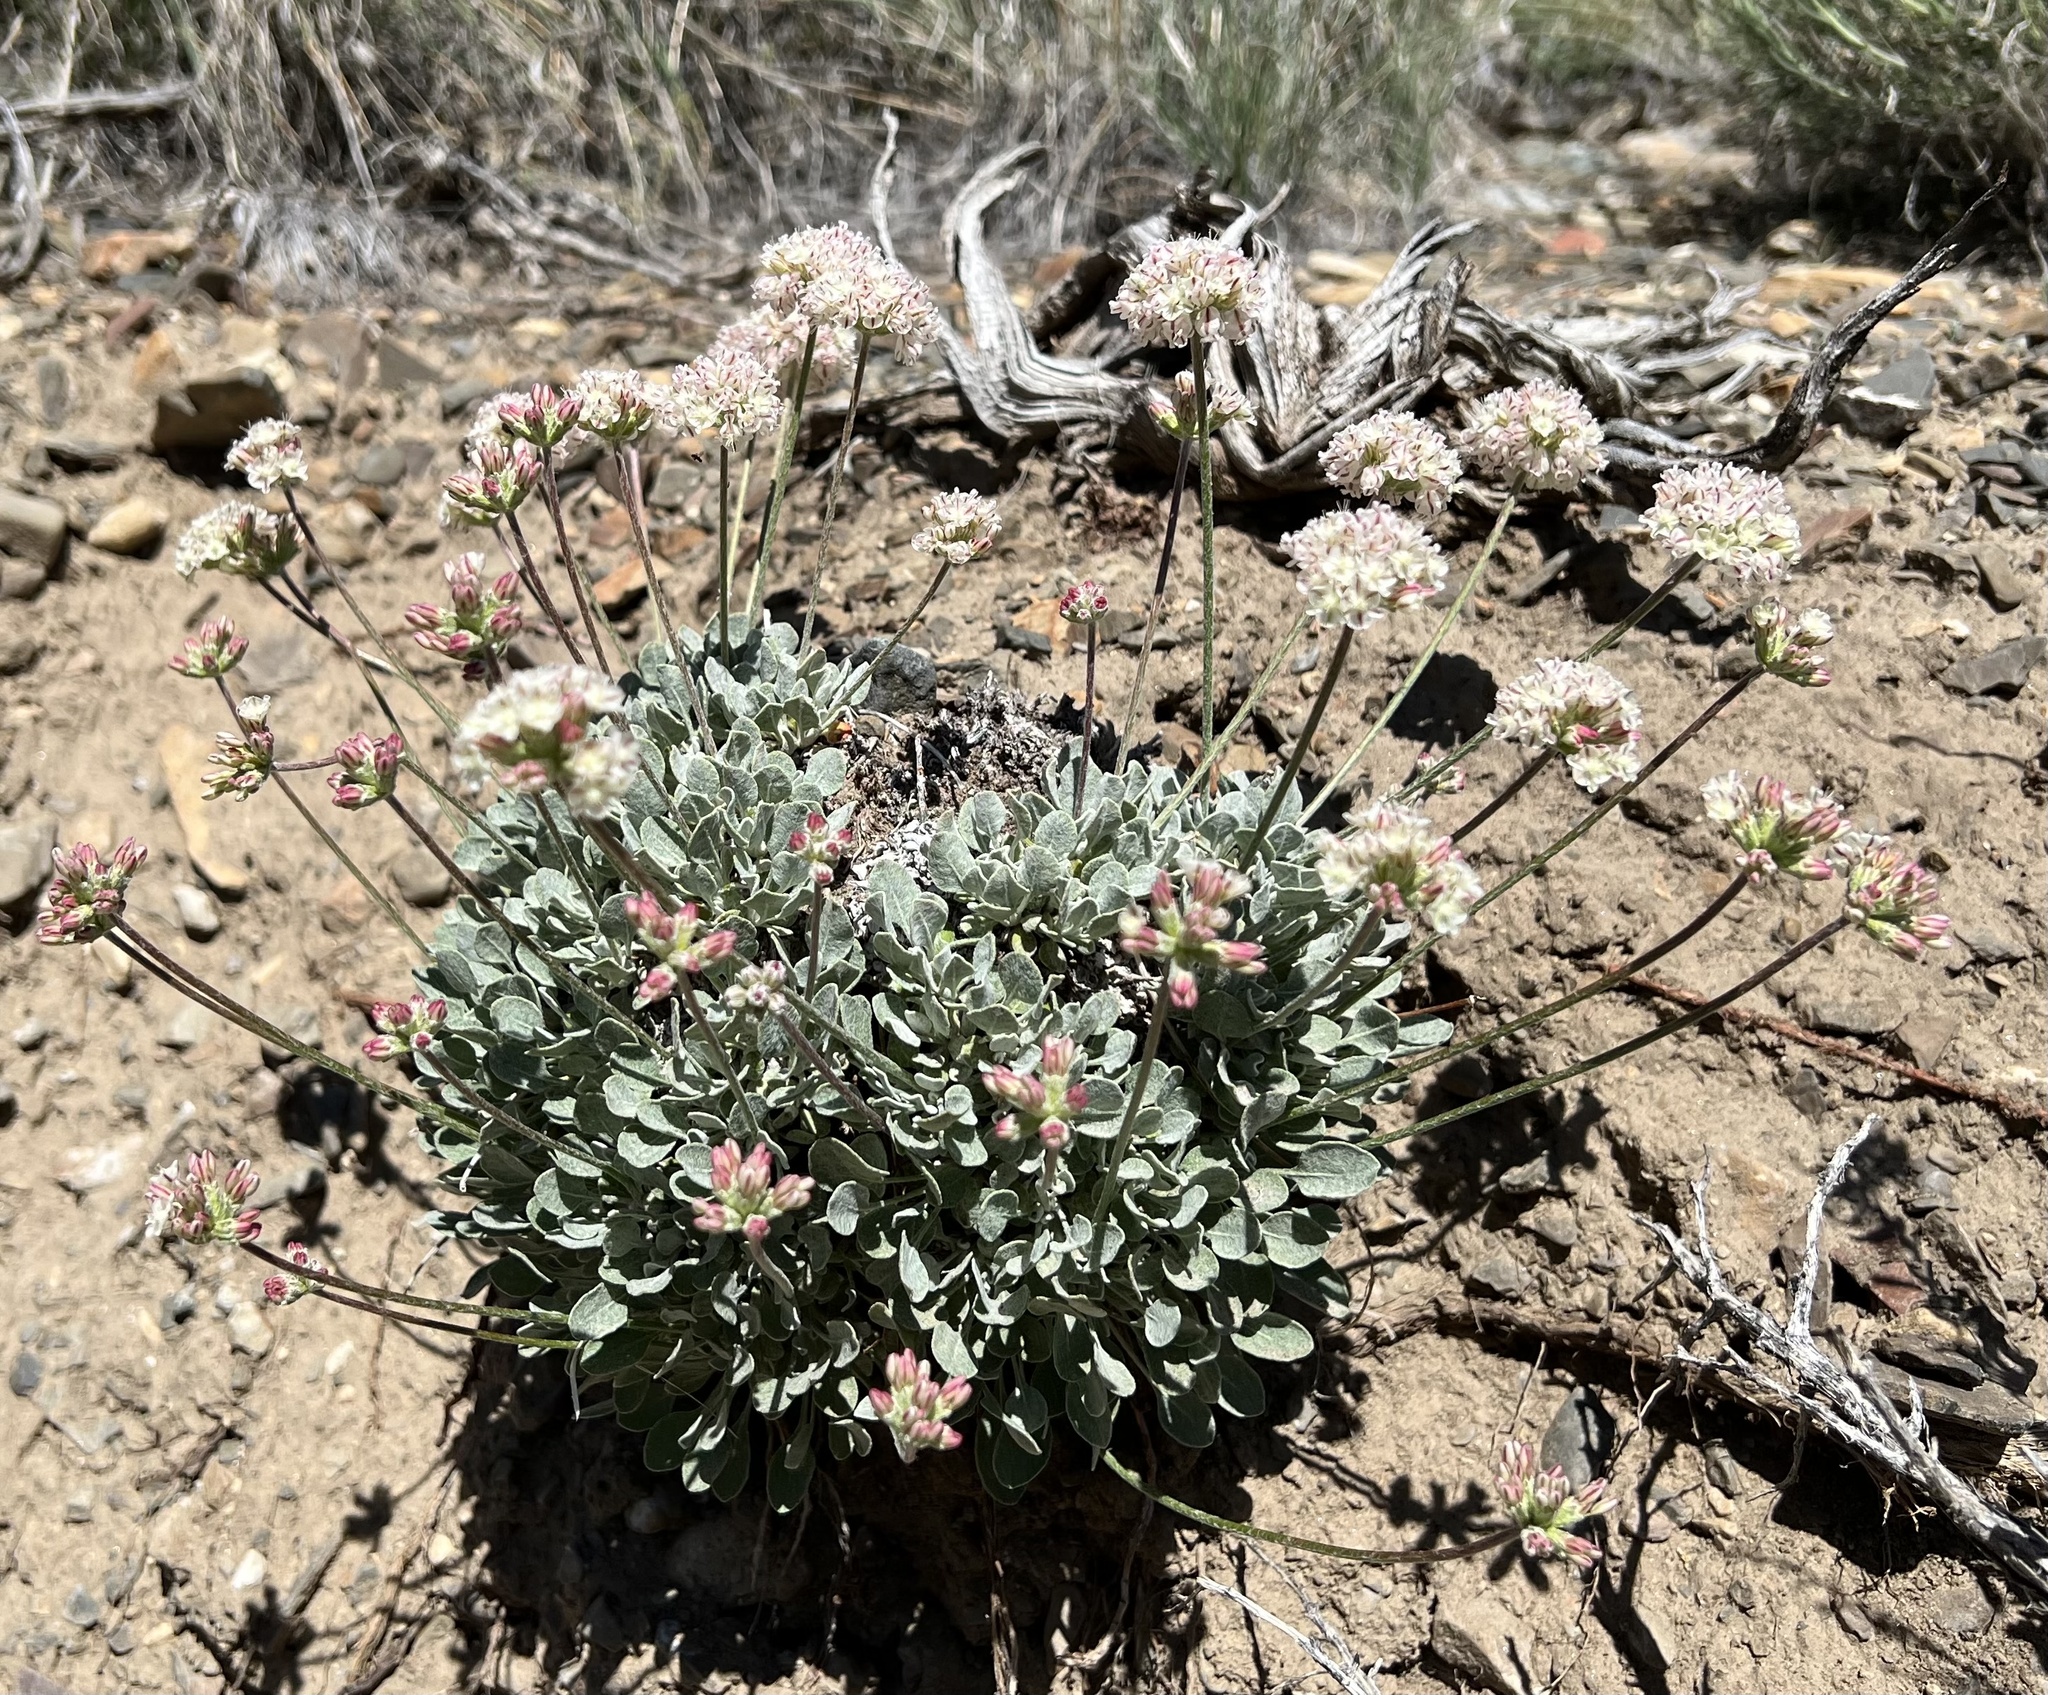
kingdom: Plantae
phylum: Tracheophyta
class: Magnoliopsida
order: Caryophyllales
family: Polygonaceae
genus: Eriogonum
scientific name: Eriogonum ovalifolium
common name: Cushion buckwheat
